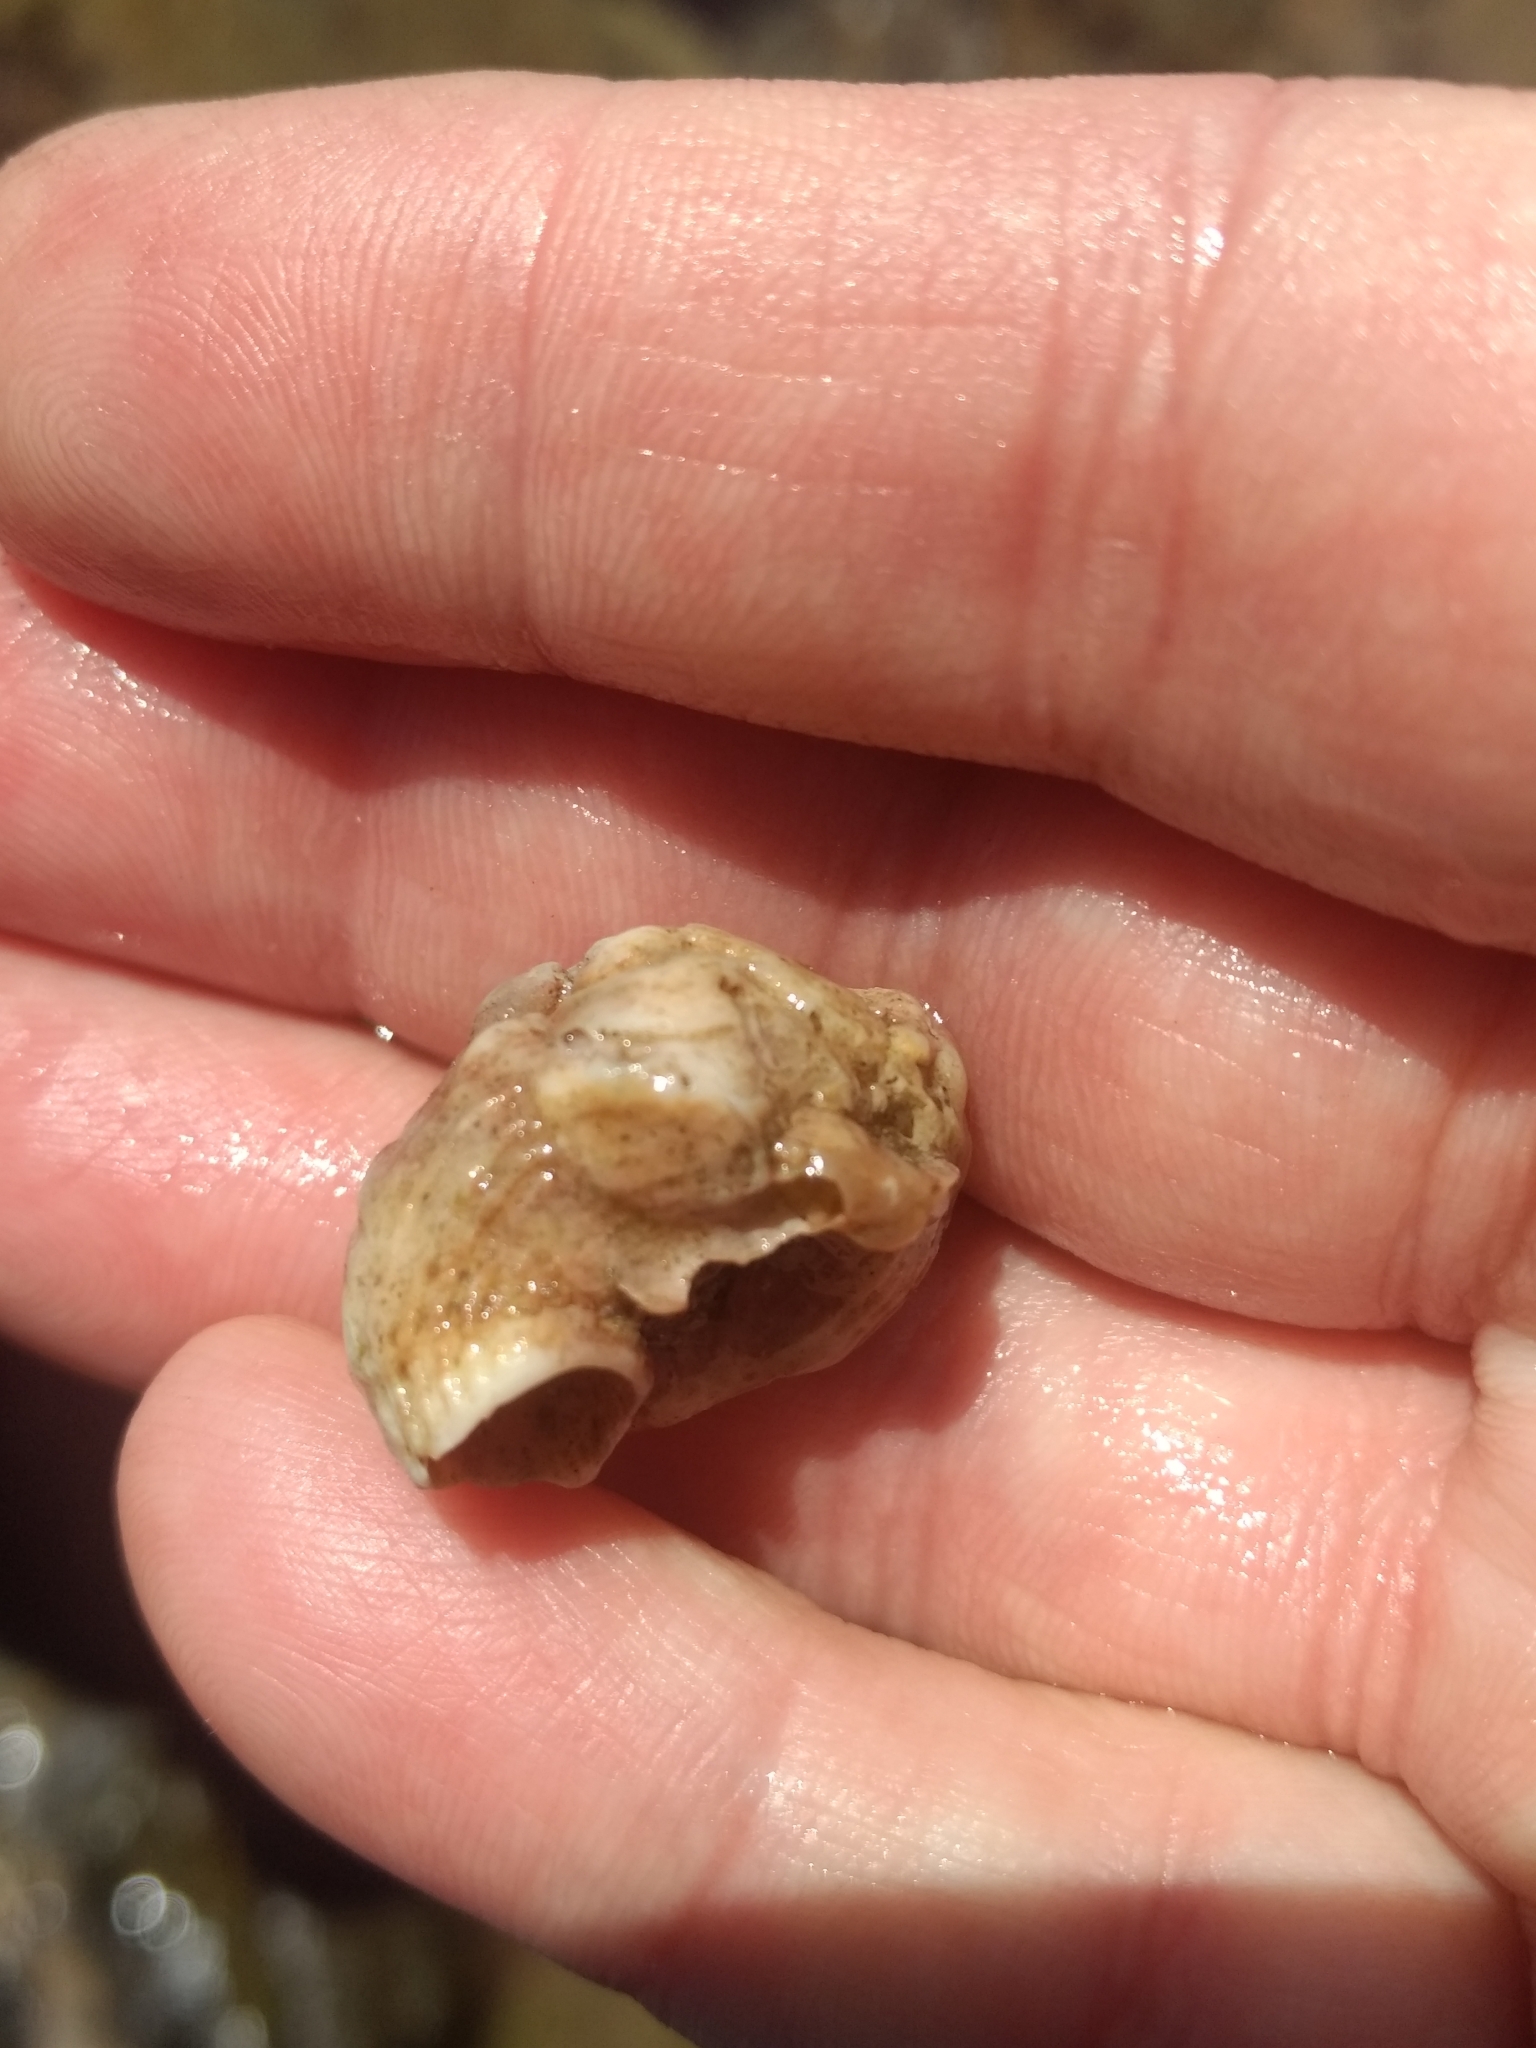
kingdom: Animalia
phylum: Mollusca
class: Gastropoda
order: Littorinimorpha
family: Vermetidae
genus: Thylacodes
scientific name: Thylacodes squamigerus
